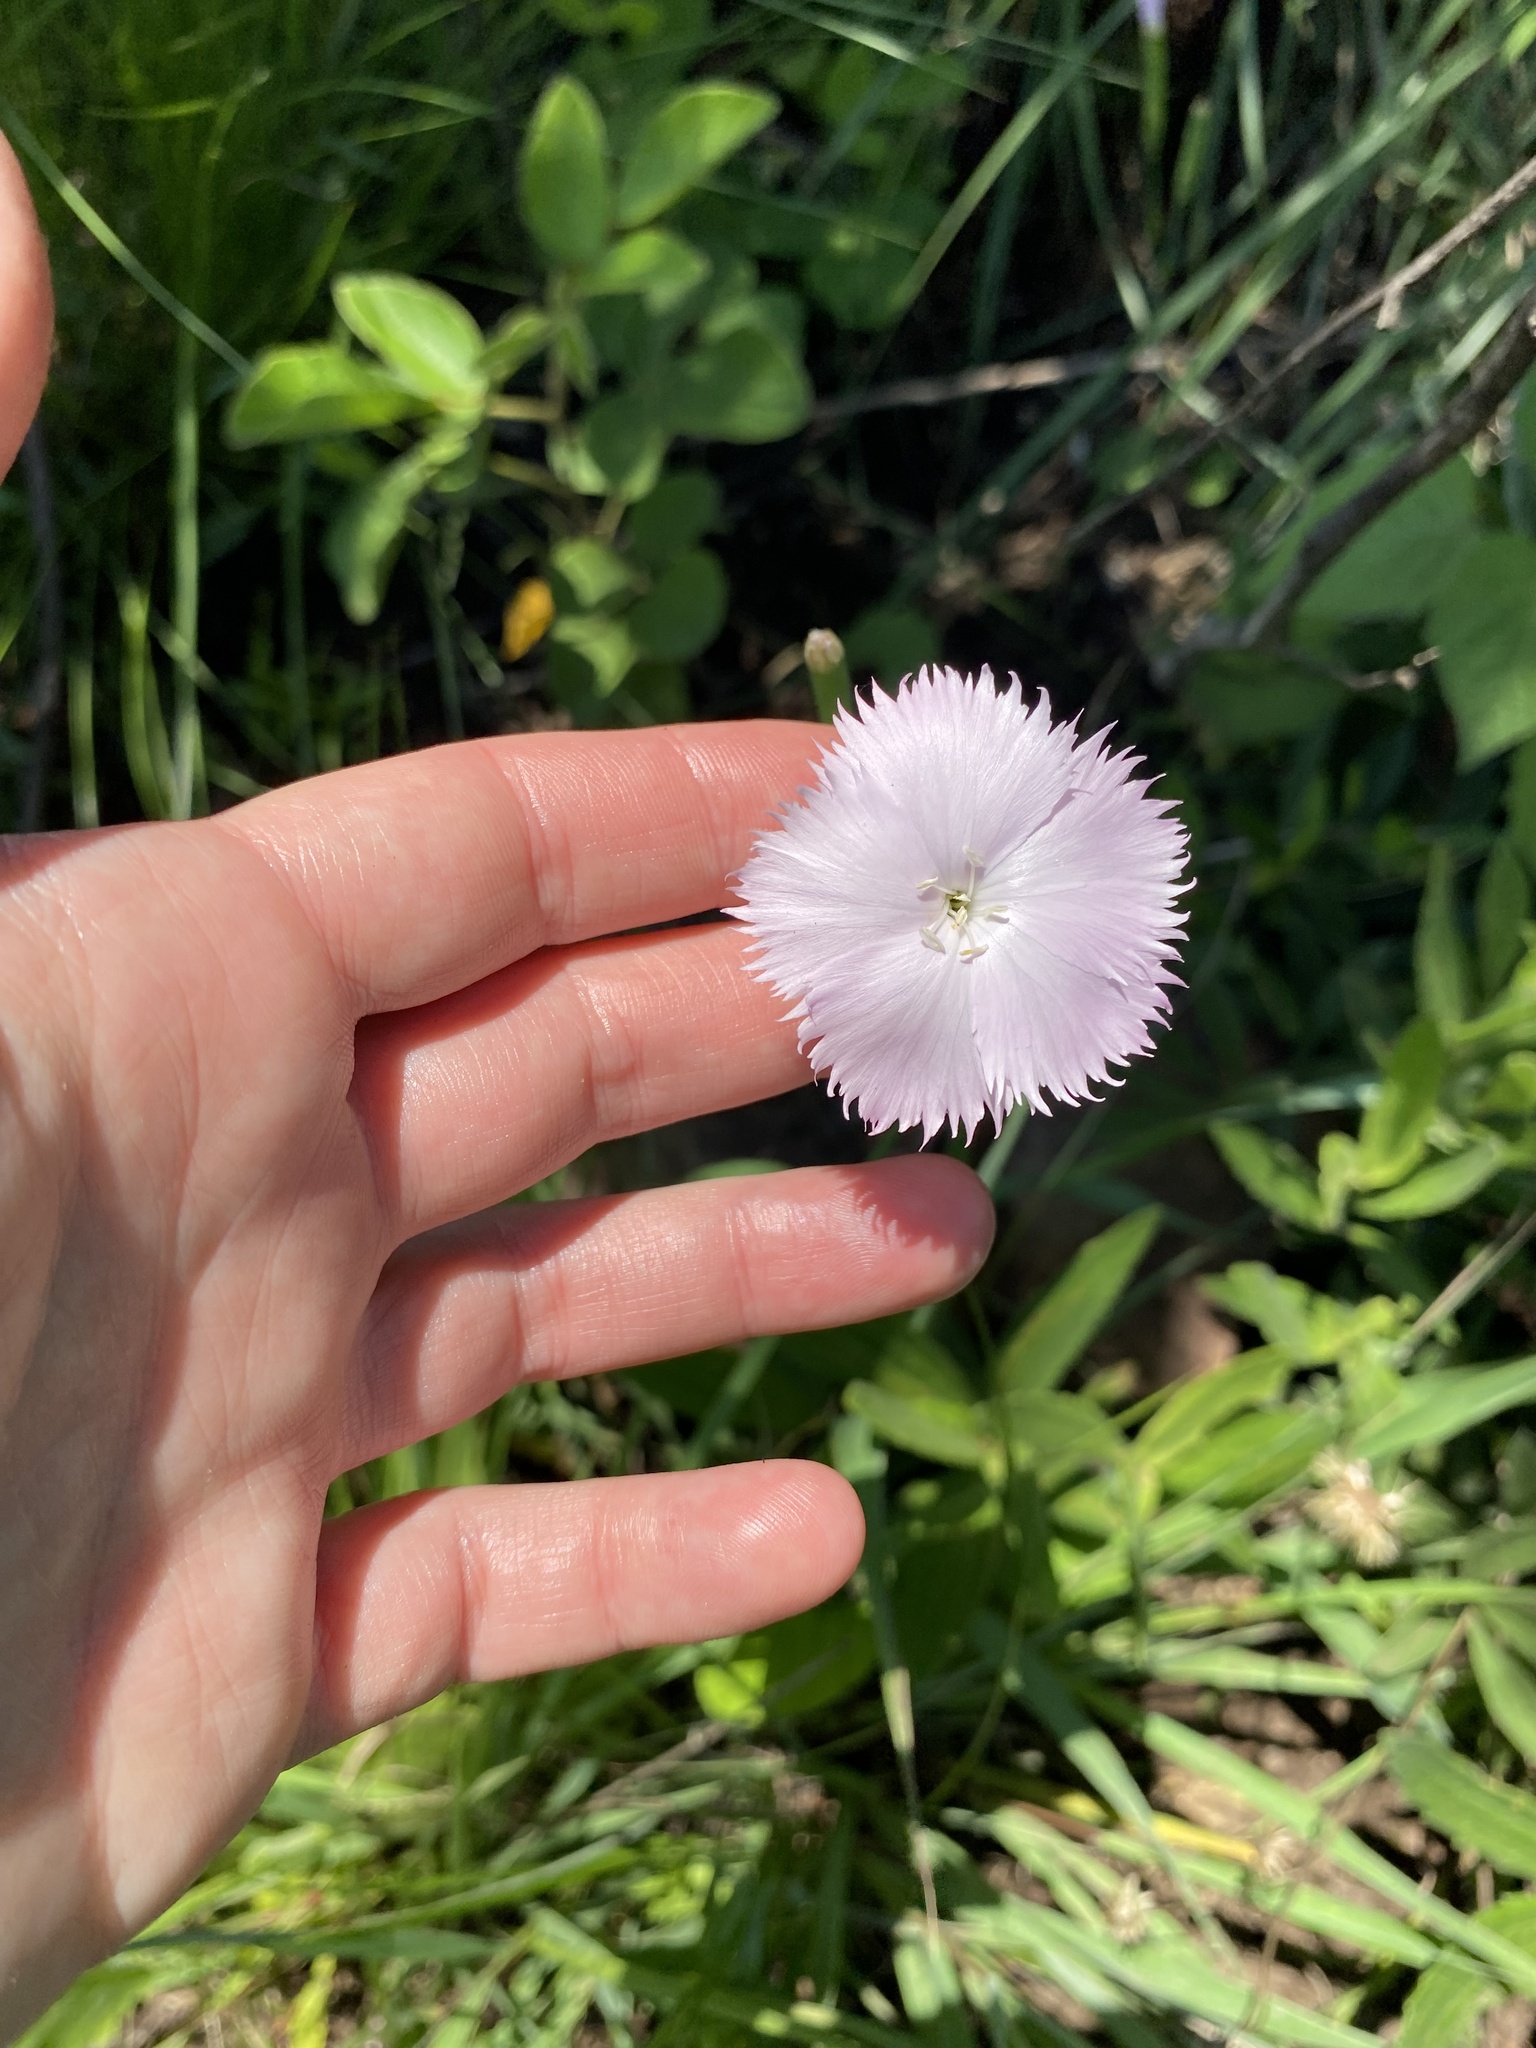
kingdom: Plantae
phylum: Tracheophyta
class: Magnoliopsida
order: Caryophyllales
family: Caryophyllaceae
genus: Dianthus
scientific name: Dianthus zeyheri
